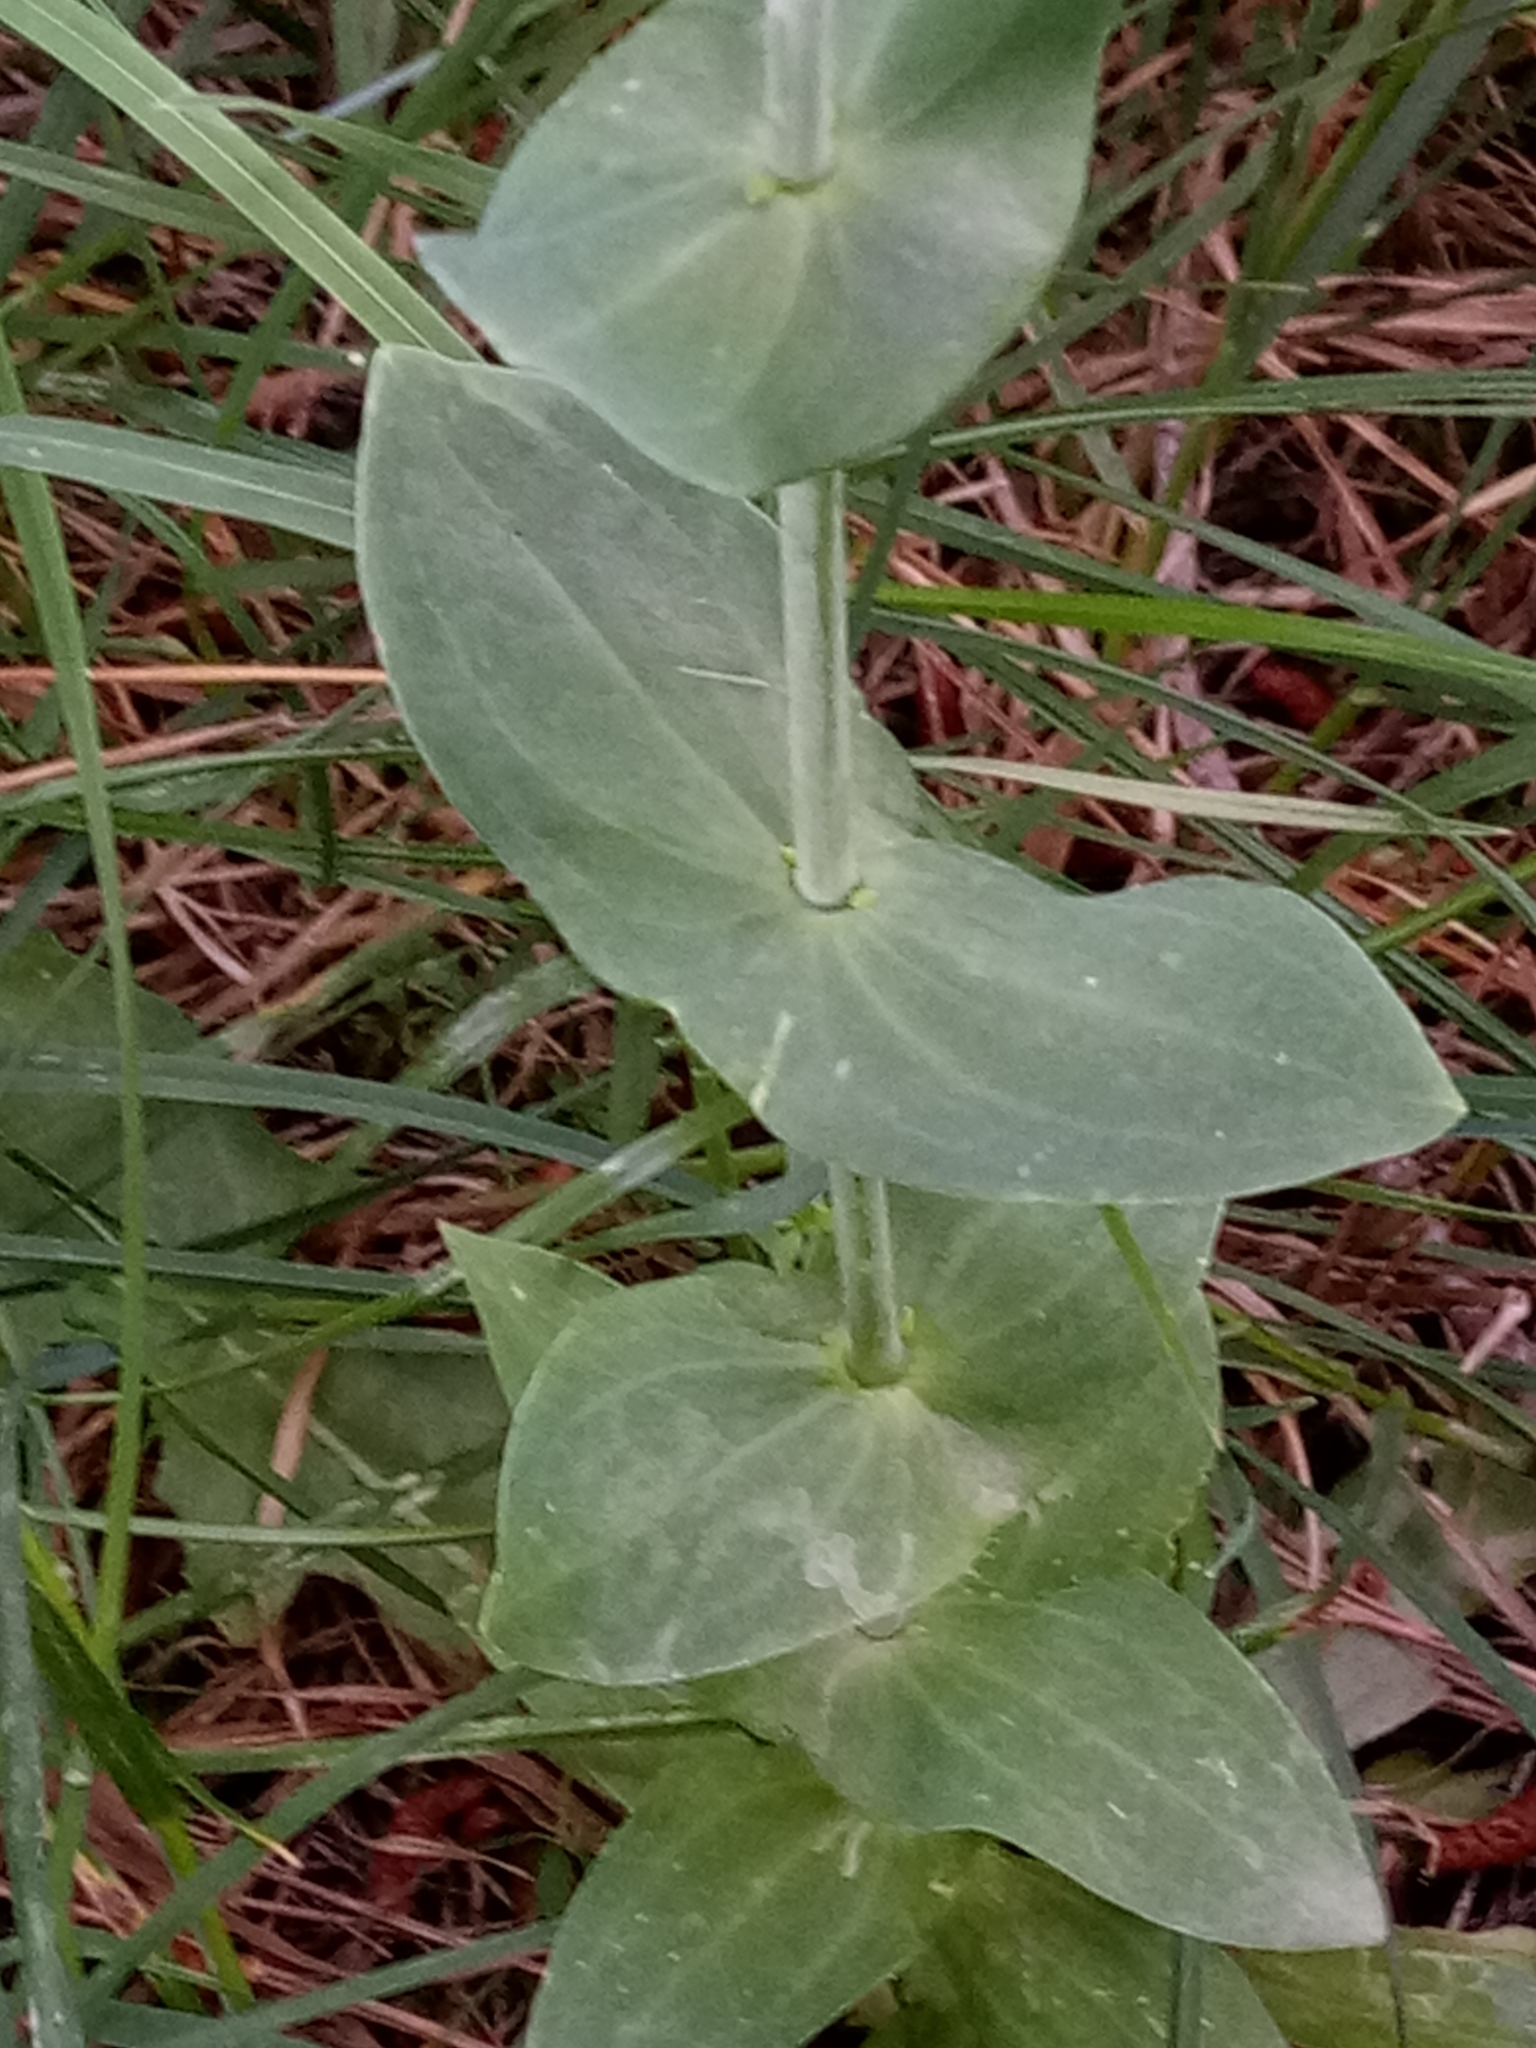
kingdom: Plantae
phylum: Tracheophyta
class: Magnoliopsida
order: Gentianales
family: Gentianaceae
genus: Blackstonia
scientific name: Blackstonia grandiflora
